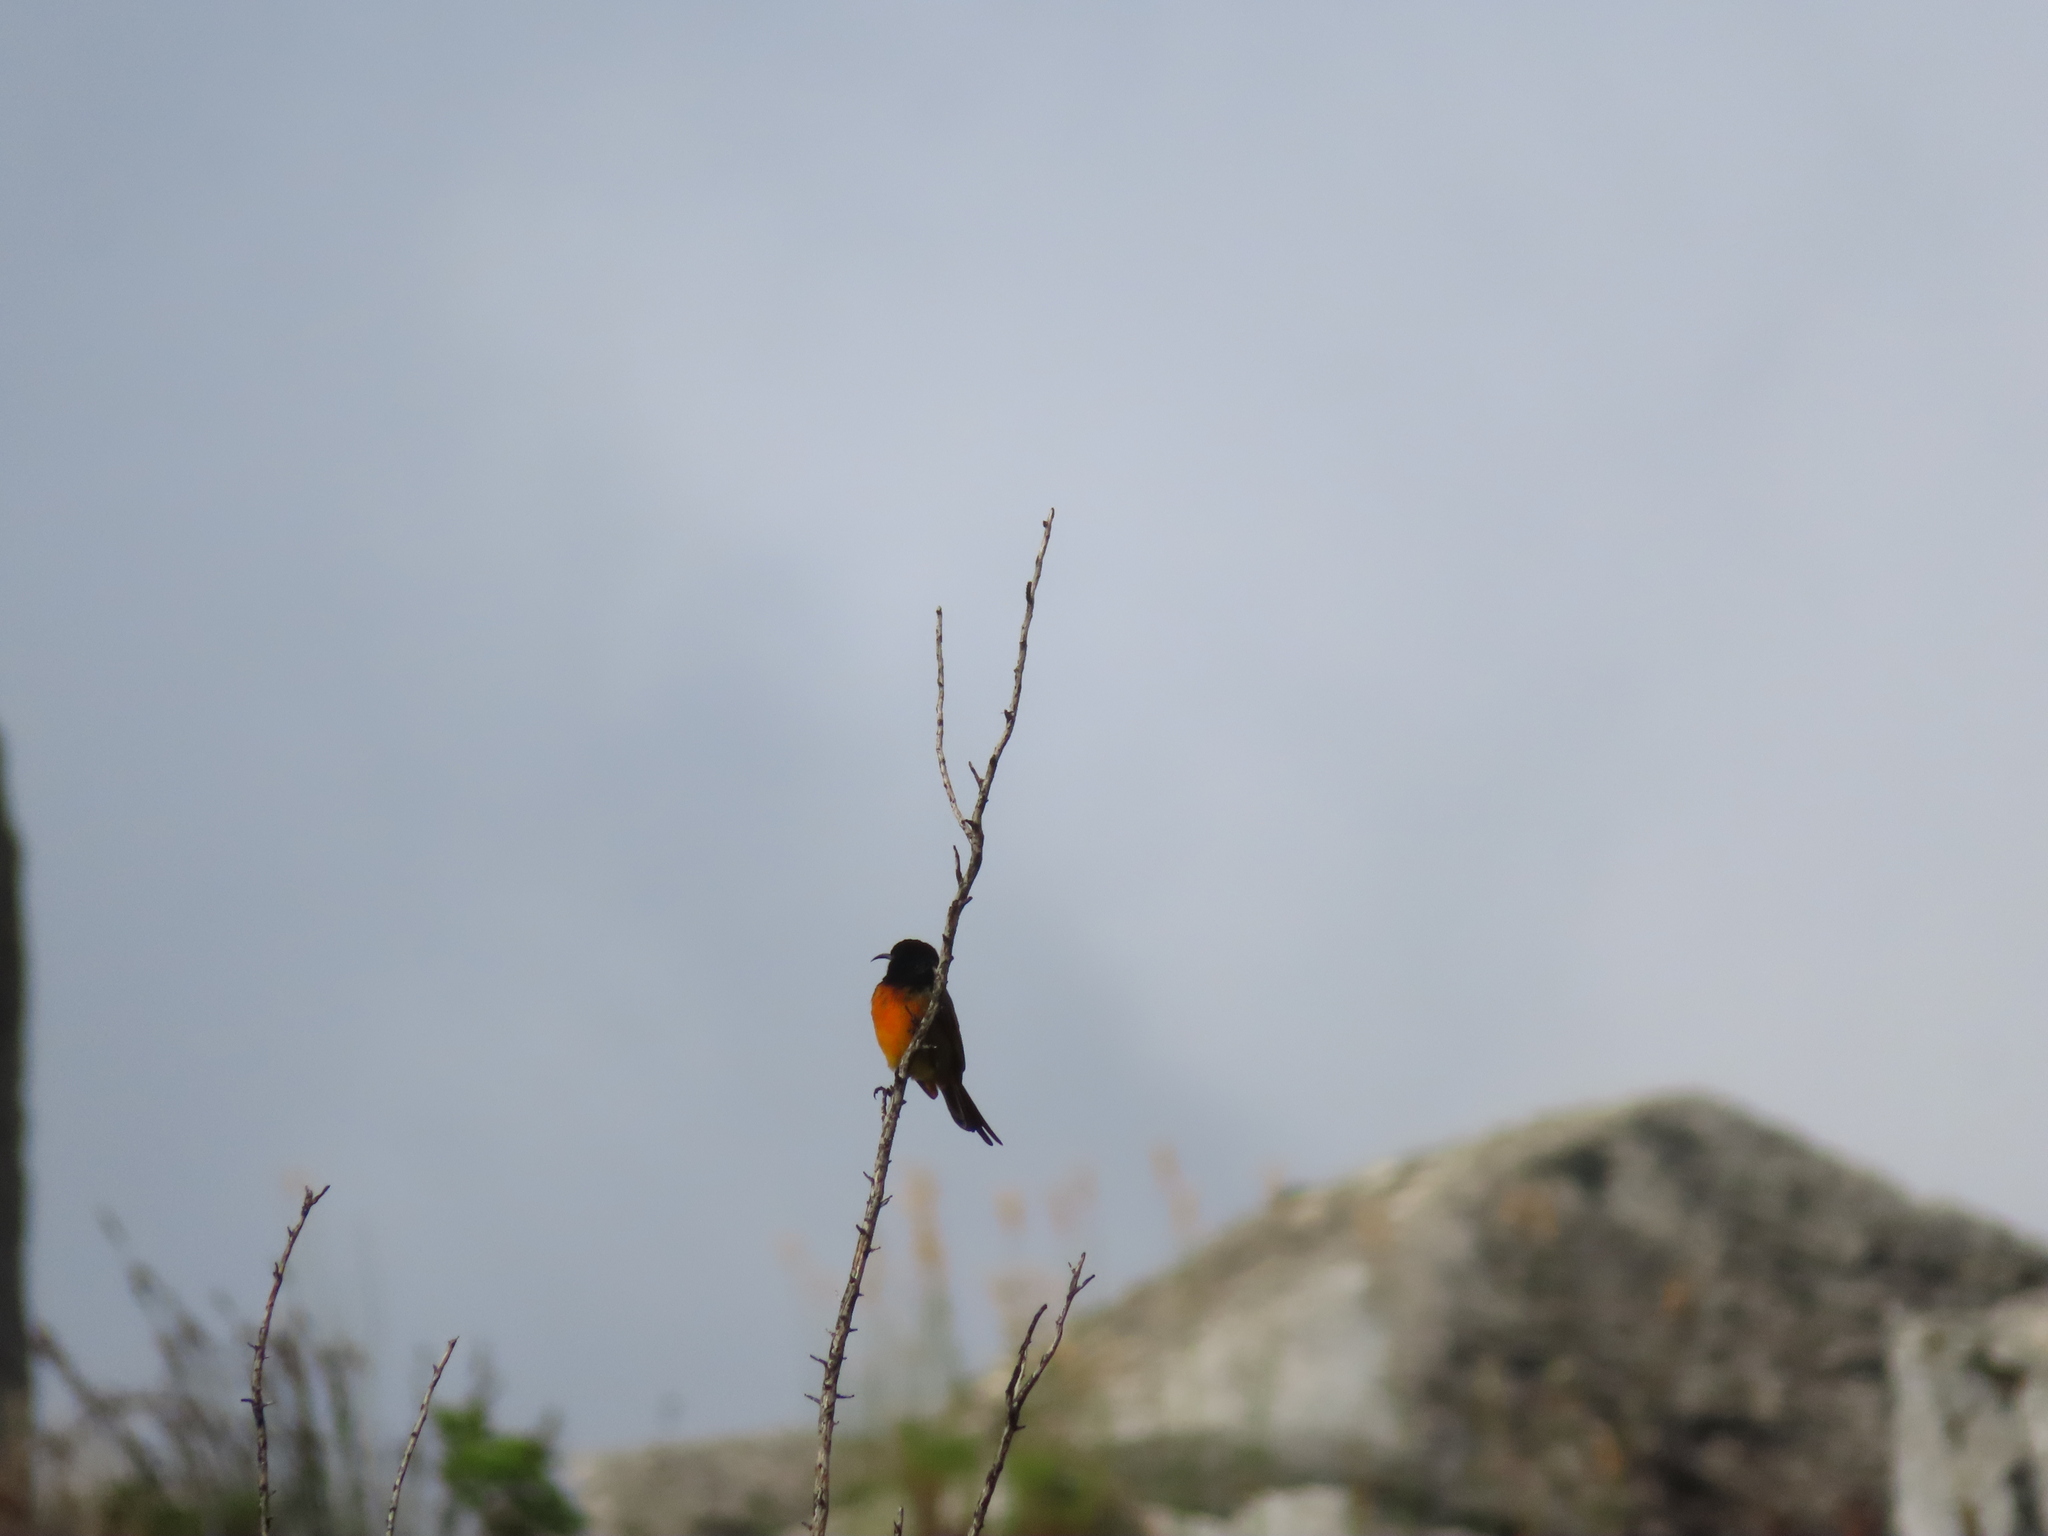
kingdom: Animalia
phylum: Chordata
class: Aves
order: Passeriformes
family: Nectariniidae
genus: Anthobaphes
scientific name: Anthobaphes violacea
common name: Orange-breasted sunbird
